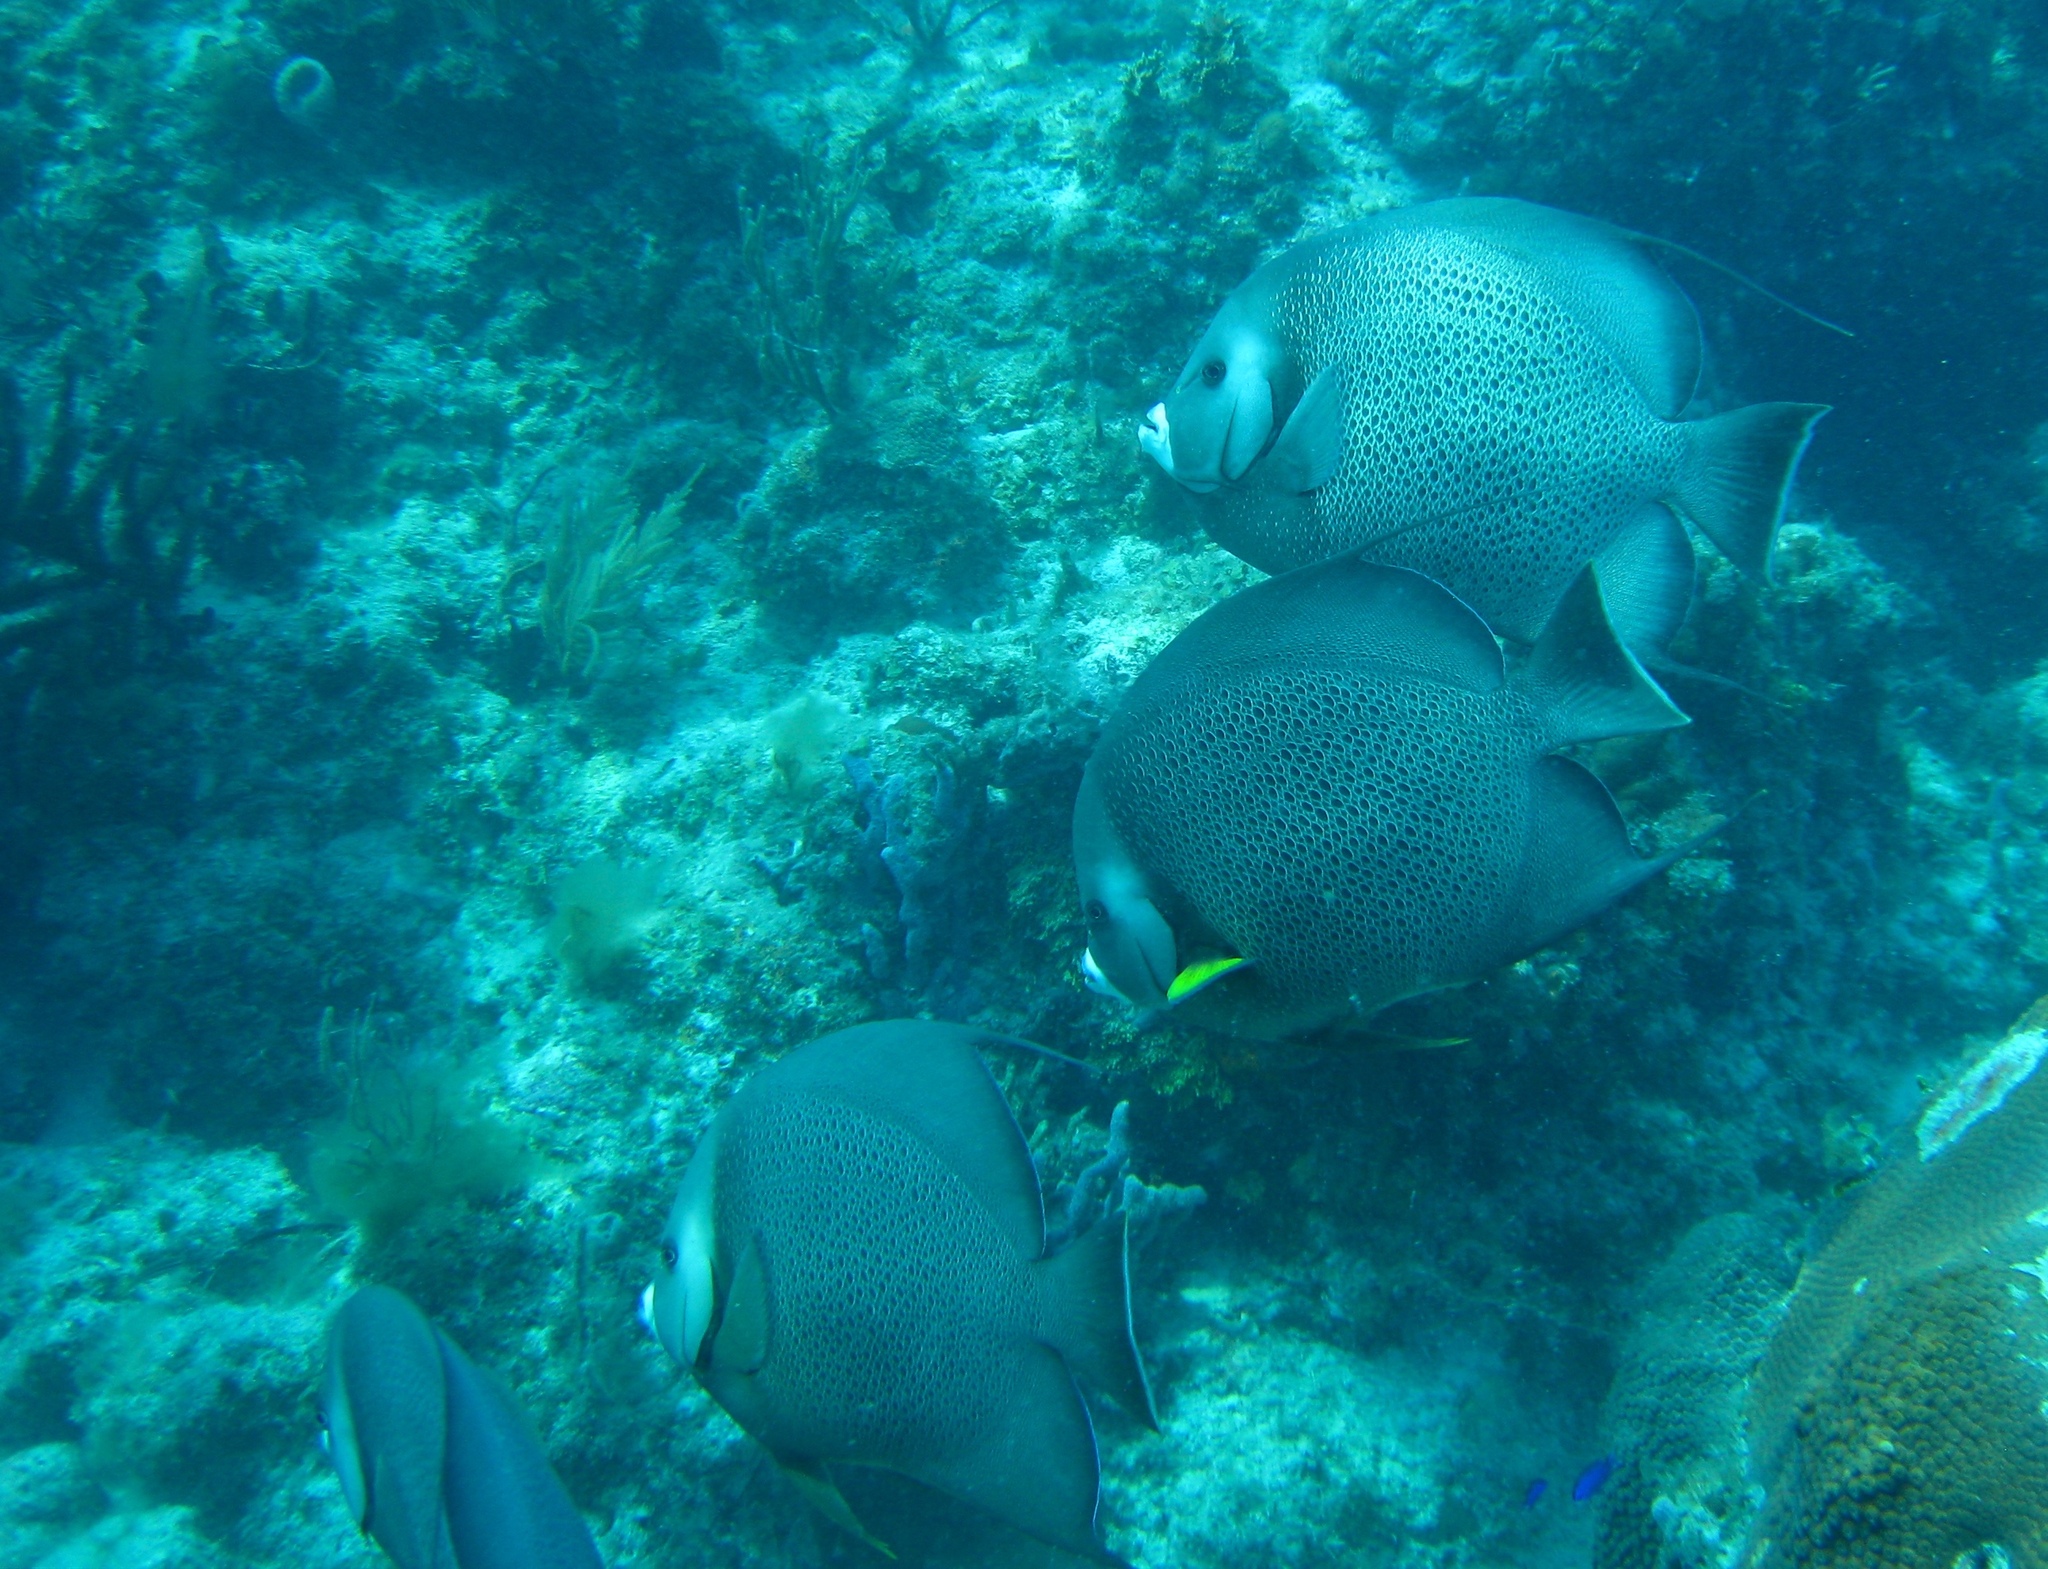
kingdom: Animalia
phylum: Chordata
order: Perciformes
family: Pomacanthidae
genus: Pomacanthus
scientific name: Pomacanthus arcuatus
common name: Gray angelfish
